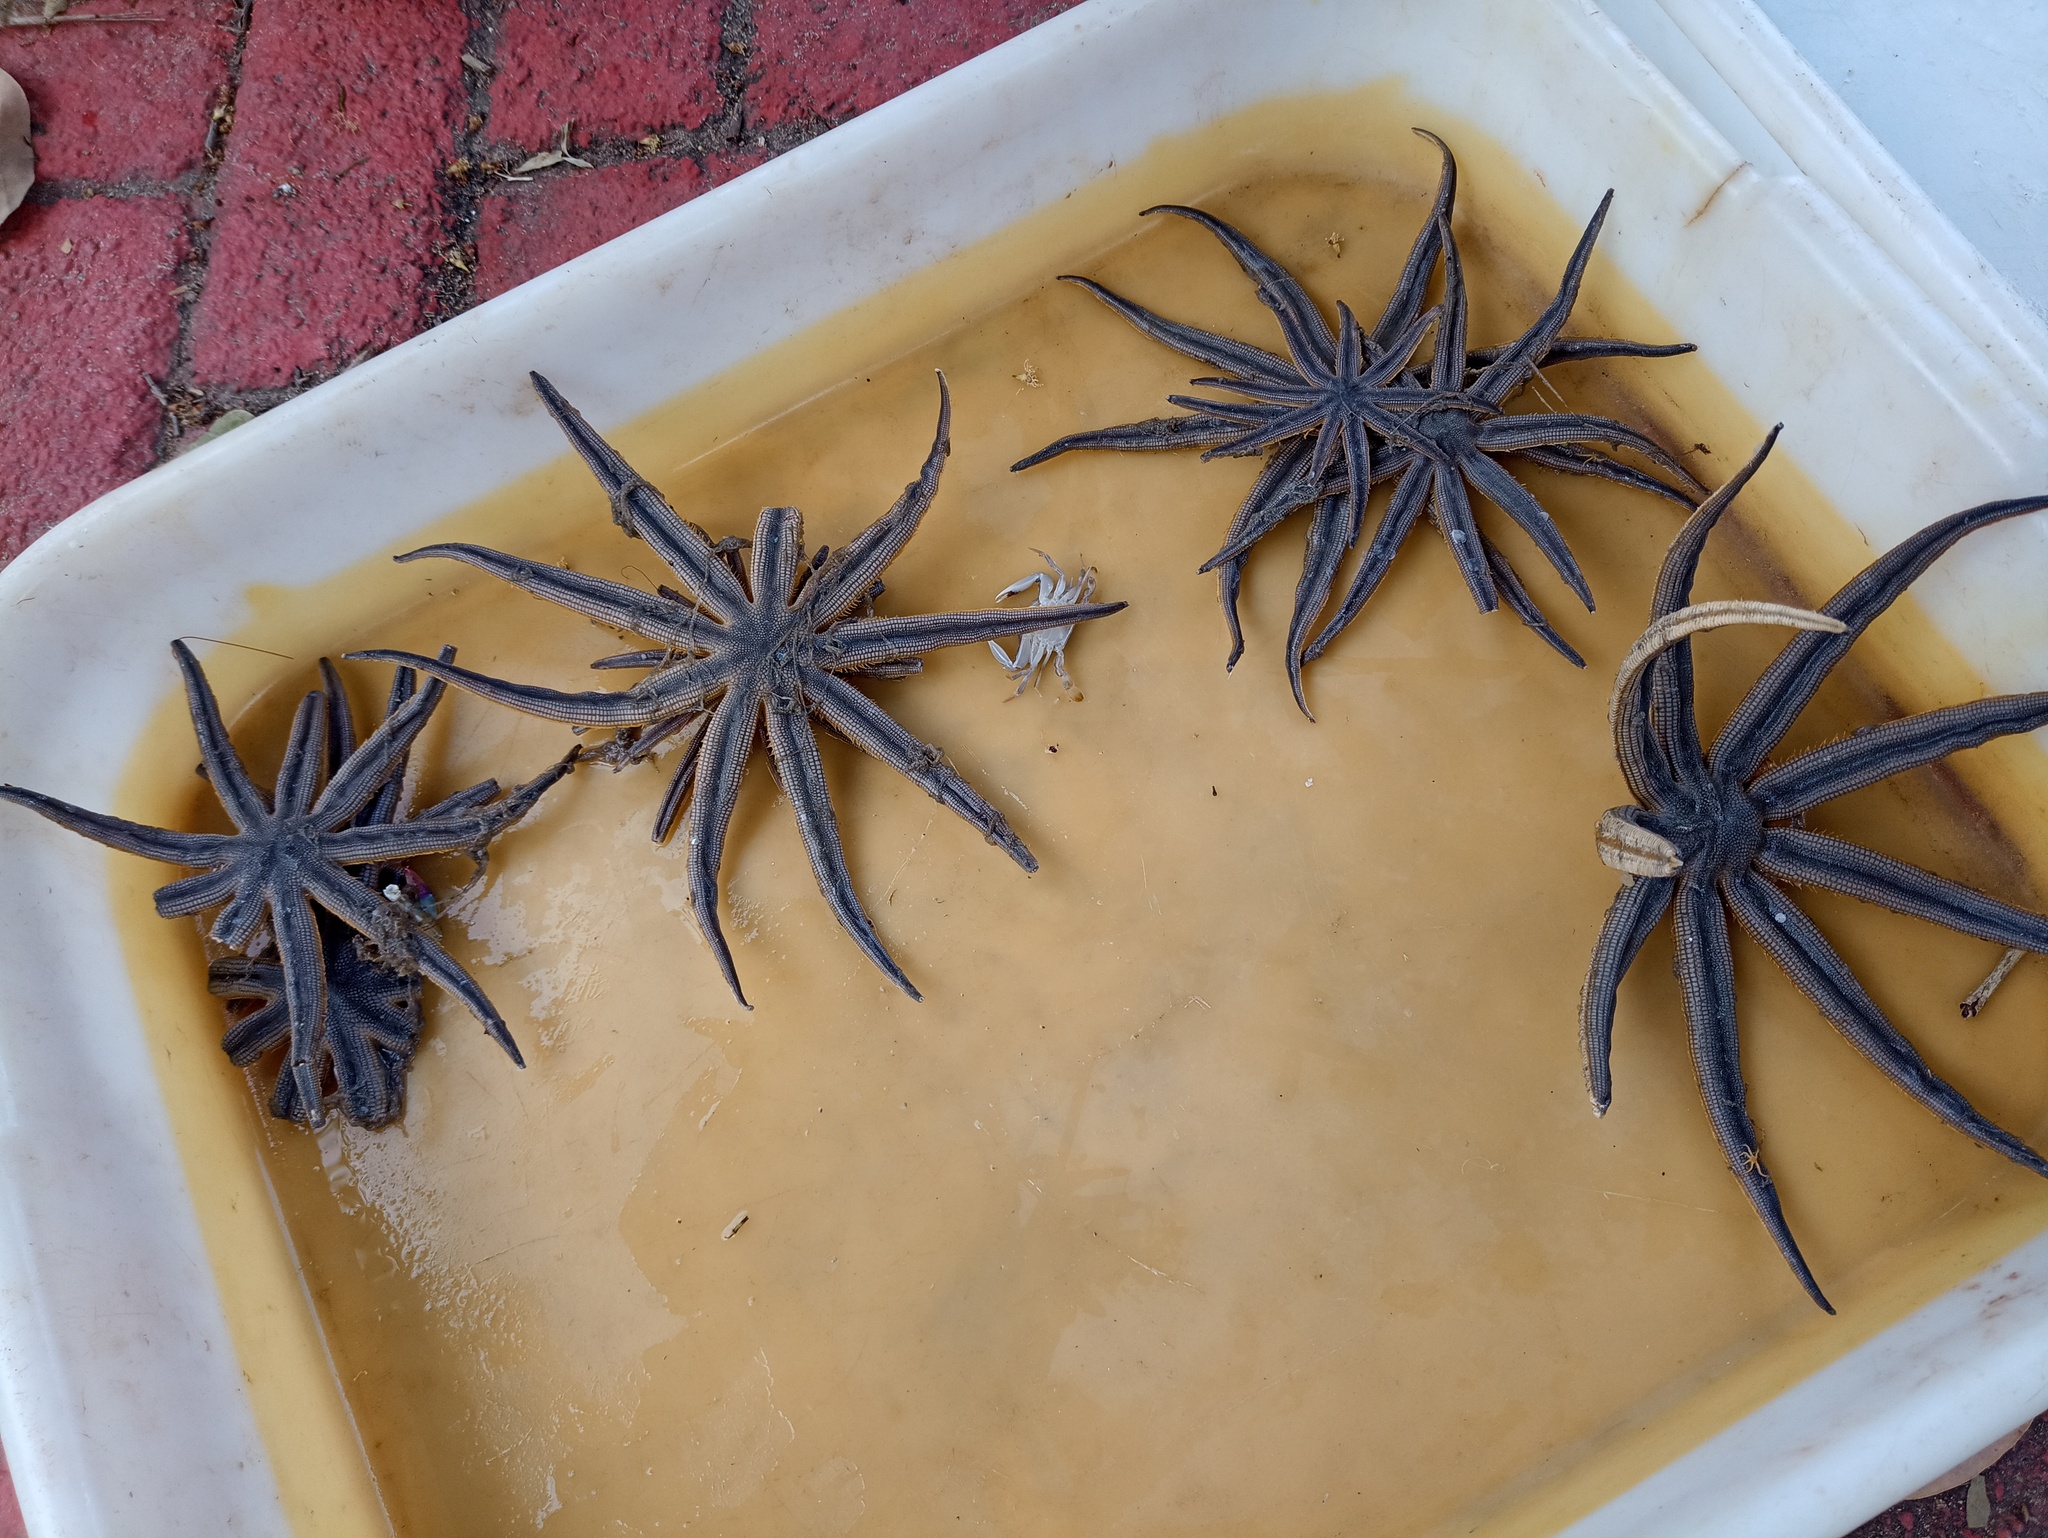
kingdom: Animalia
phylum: Echinodermata
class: Asteroidea
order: Paxillosida
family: Luidiidae
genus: Luidia
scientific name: Luidia senegalensis
